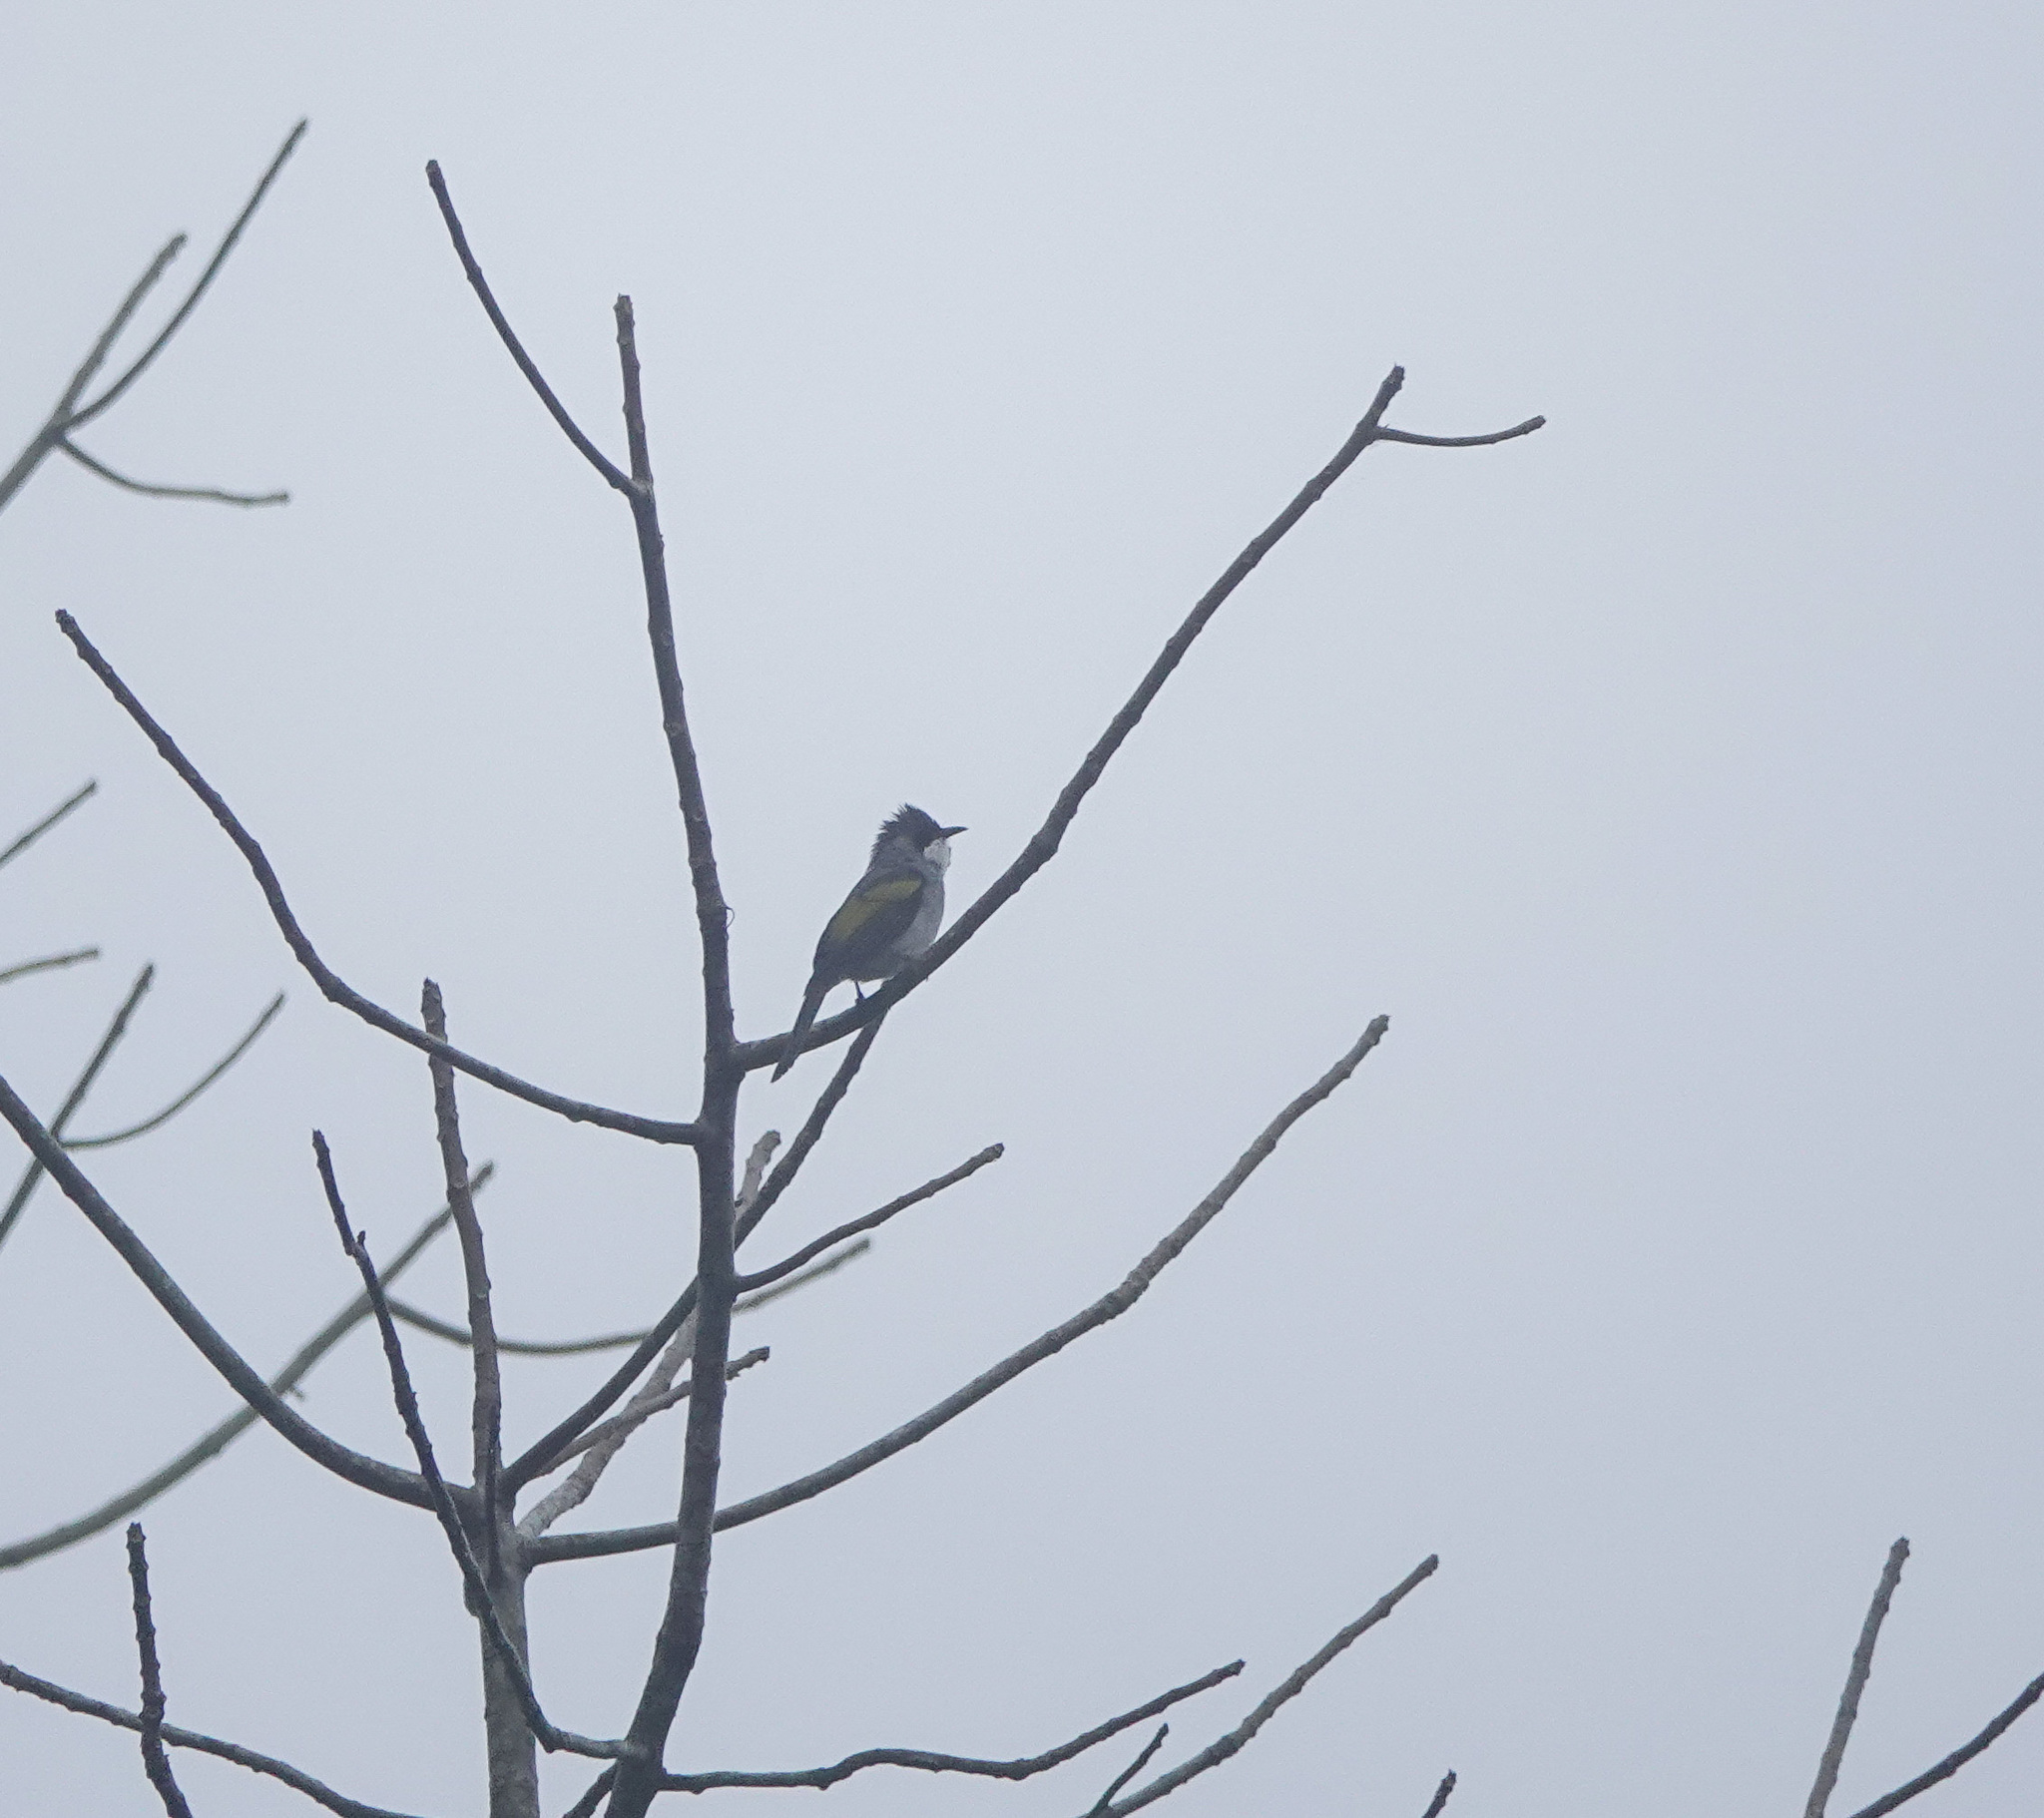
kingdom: Animalia
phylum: Chordata
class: Aves
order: Passeriformes
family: Pycnonotidae
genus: Hemixos
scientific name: Hemixos flavala
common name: Ashy bulbul
